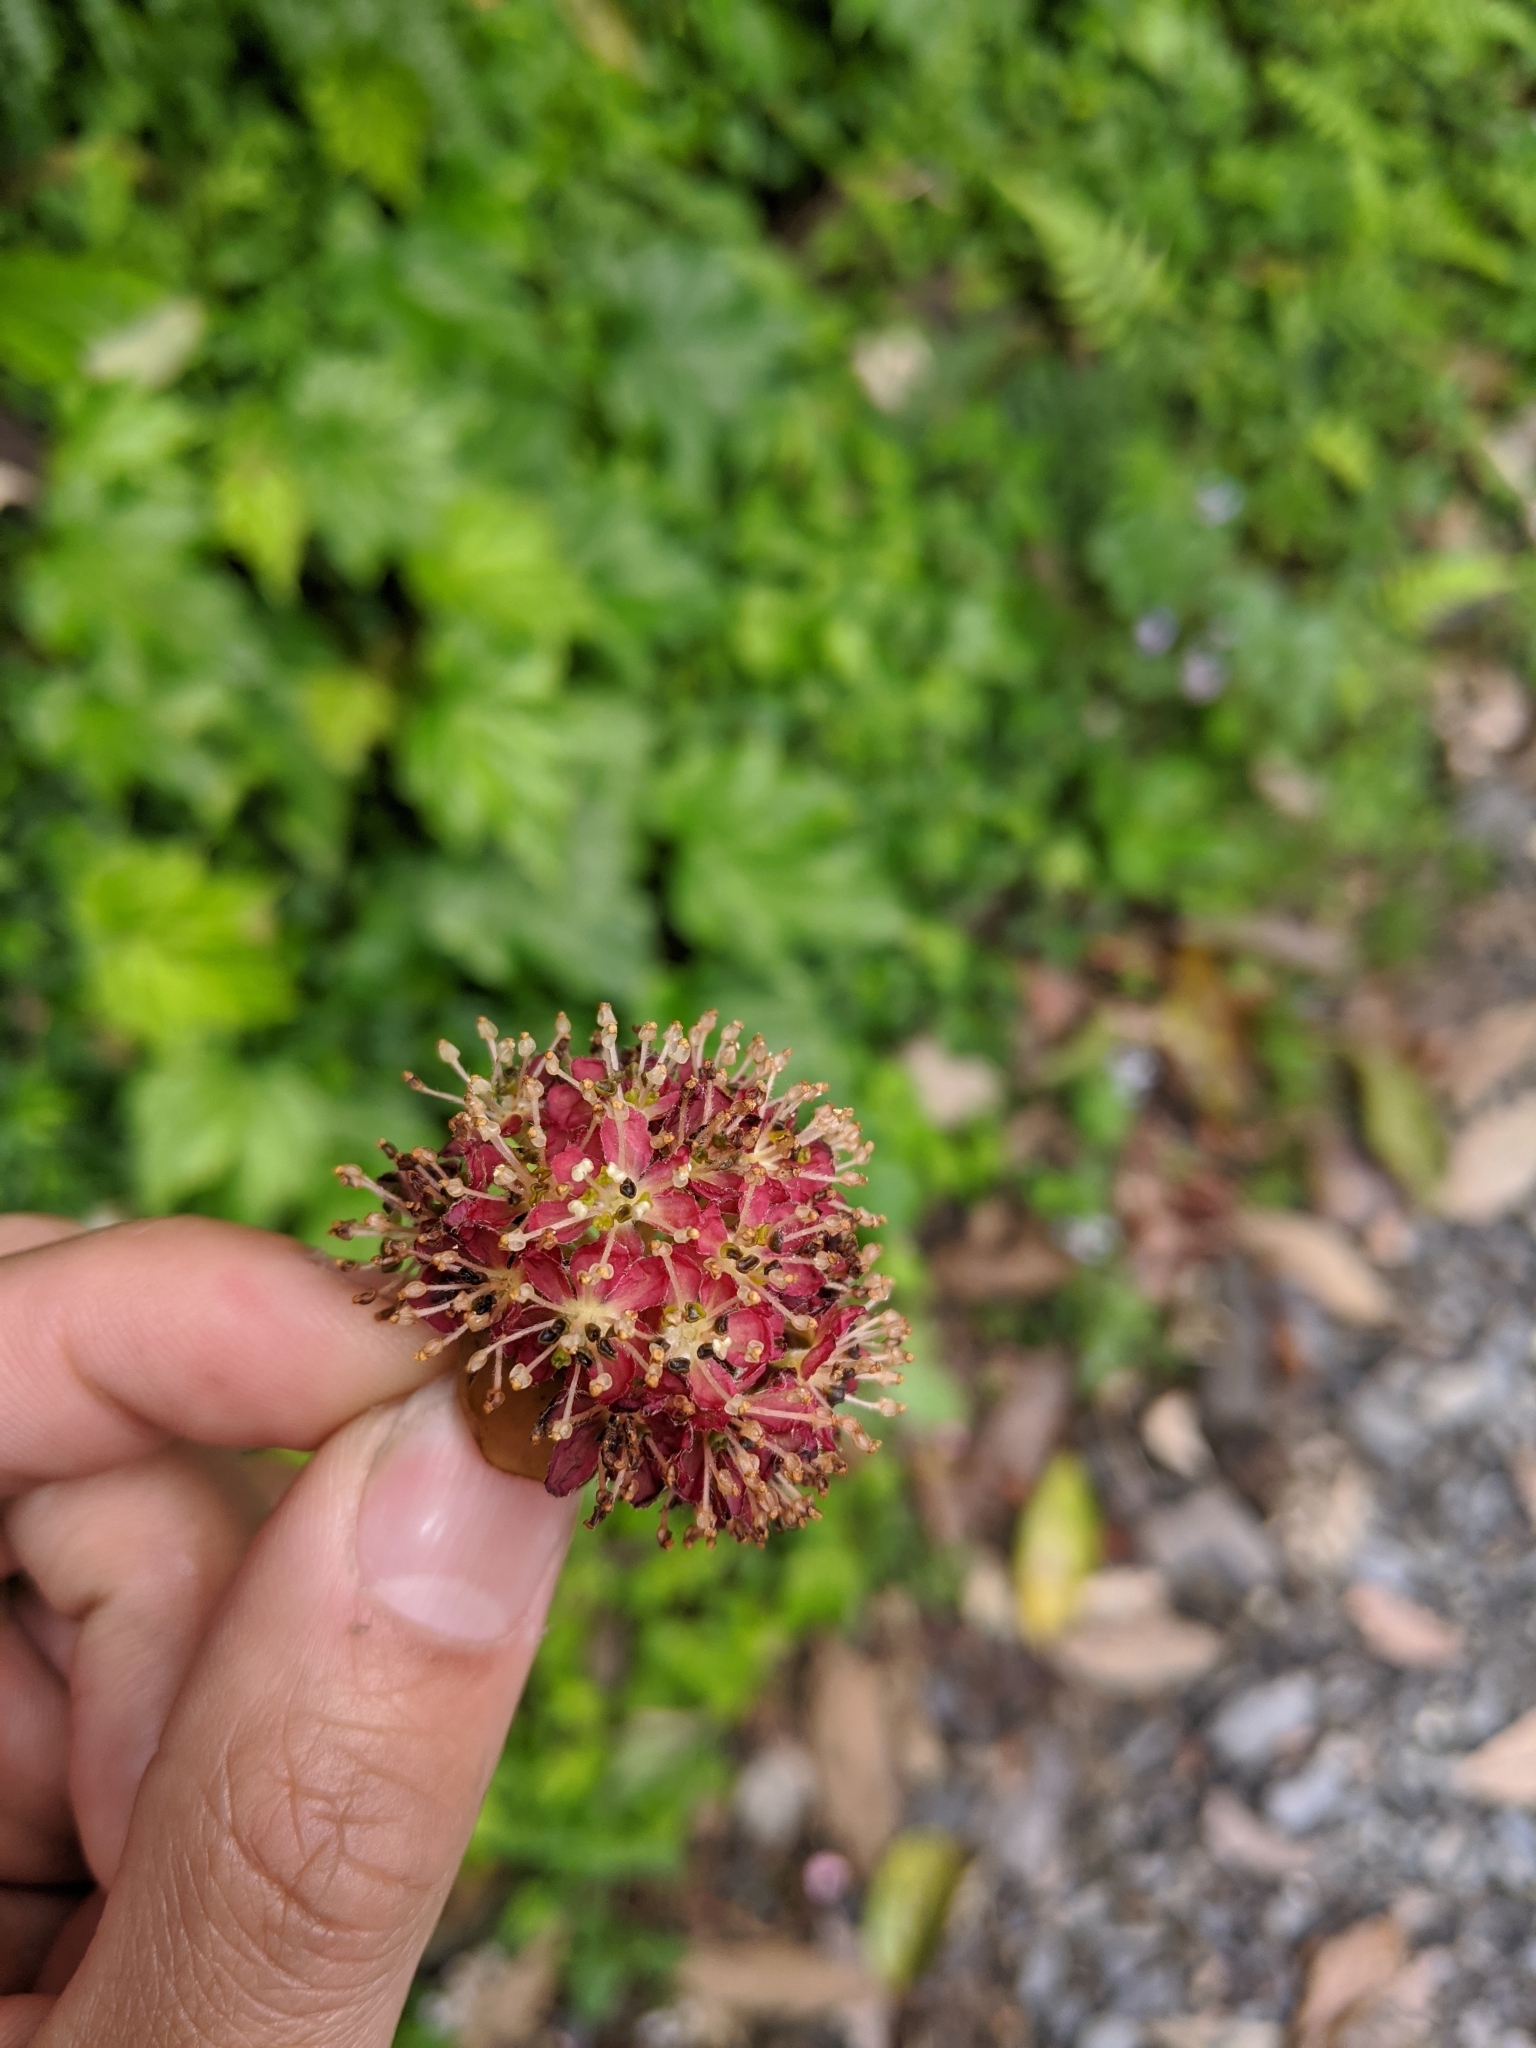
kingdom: Plantae
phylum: Tracheophyta
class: Magnoliopsida
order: Laurales
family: Lauraceae
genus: Lindera
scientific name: Lindera megaphylla
